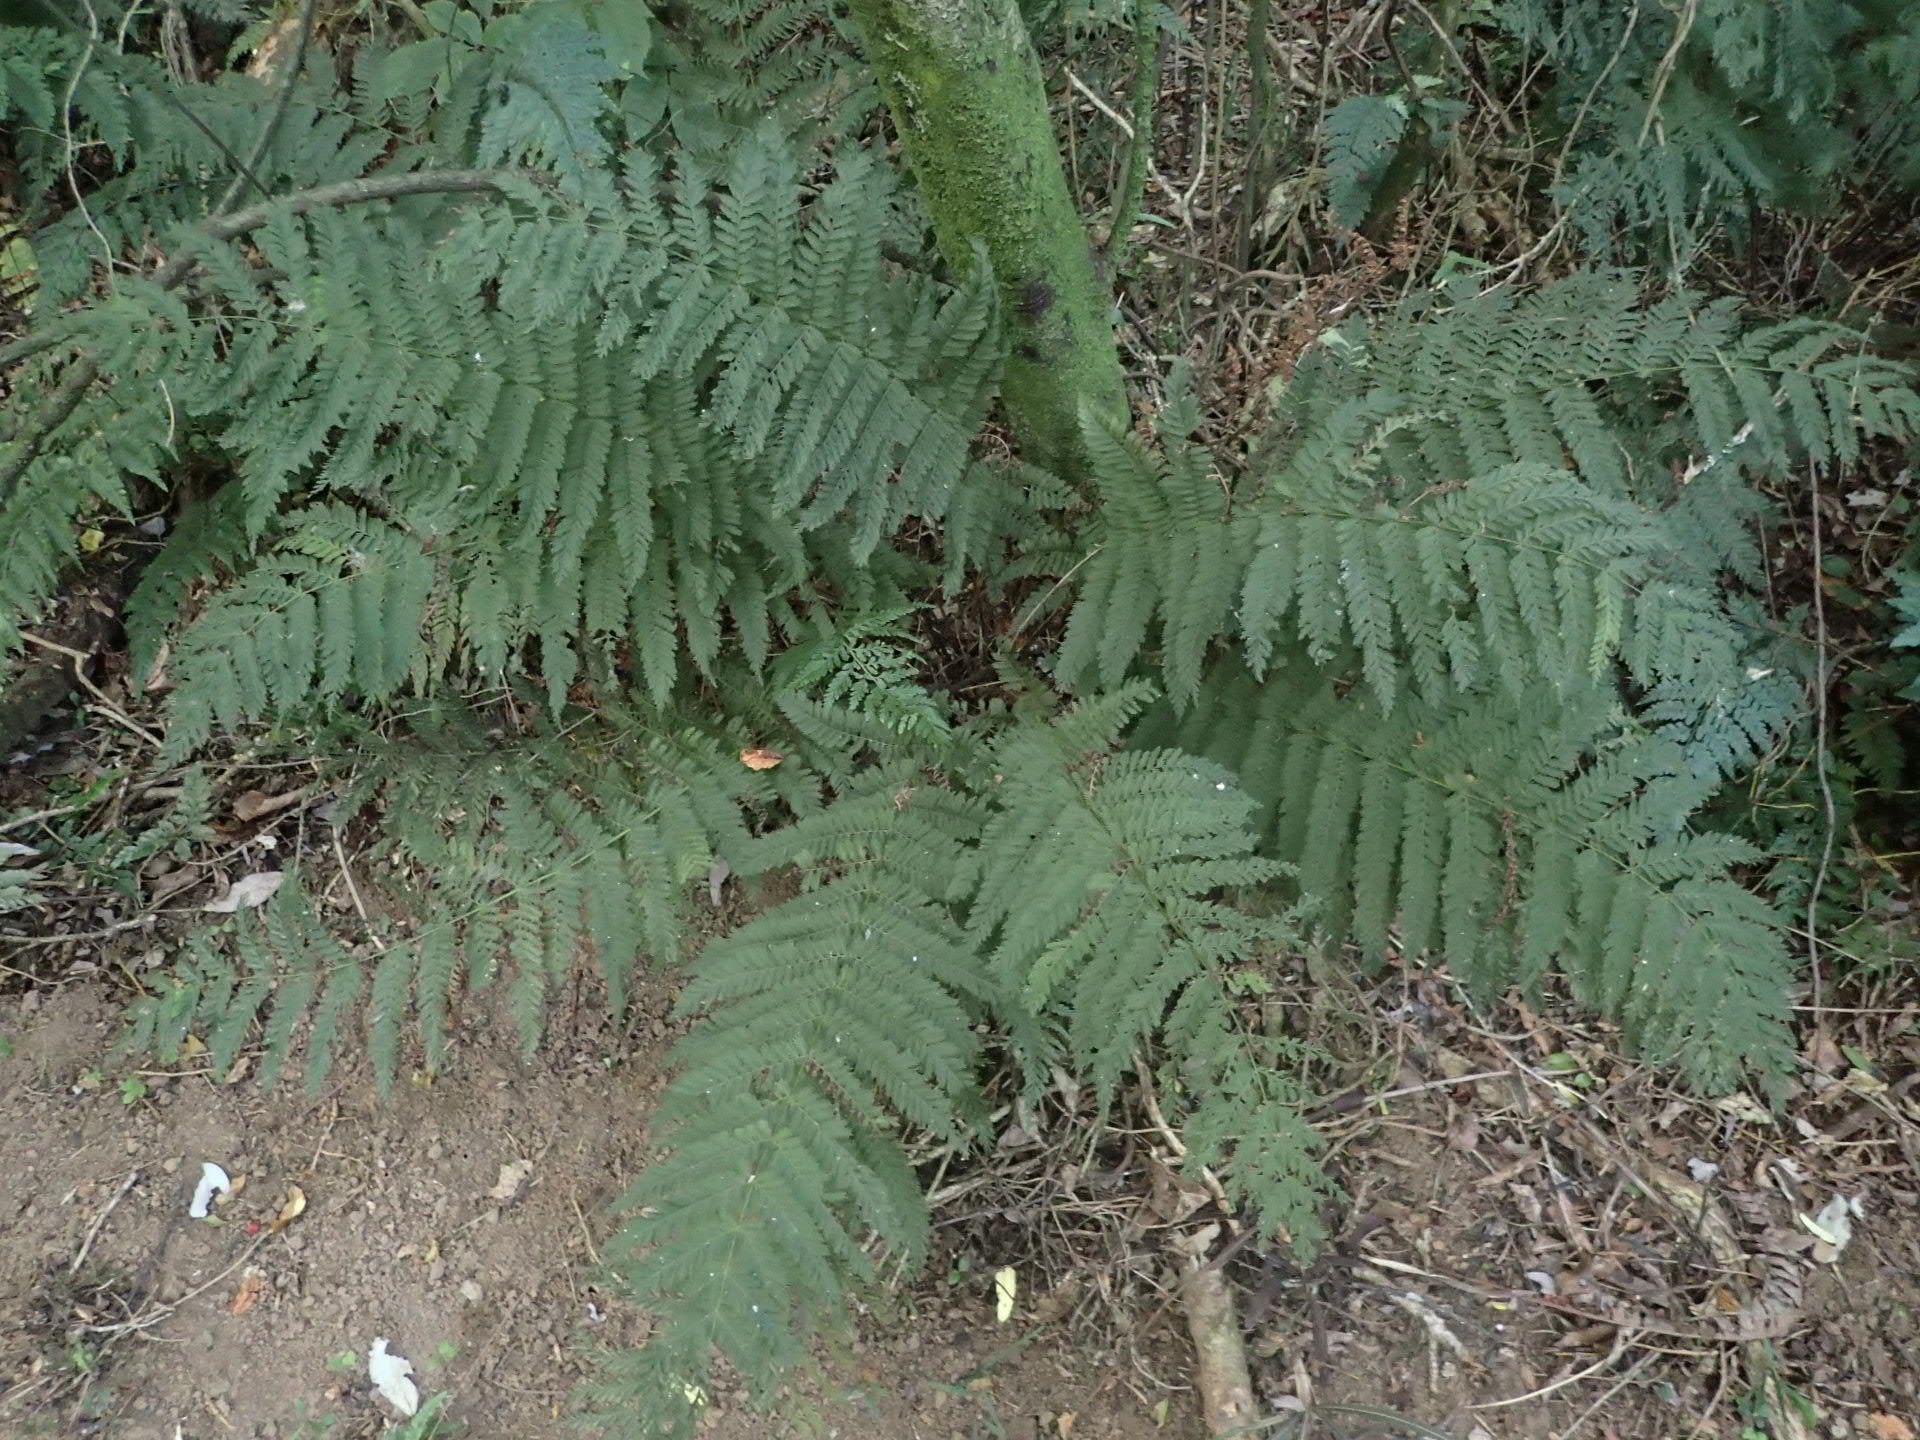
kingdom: Plantae
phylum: Tracheophyta
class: Polypodiopsida
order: Osmundales
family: Osmundaceae
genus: Leptopteris
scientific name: Leptopteris hymenophylloides
